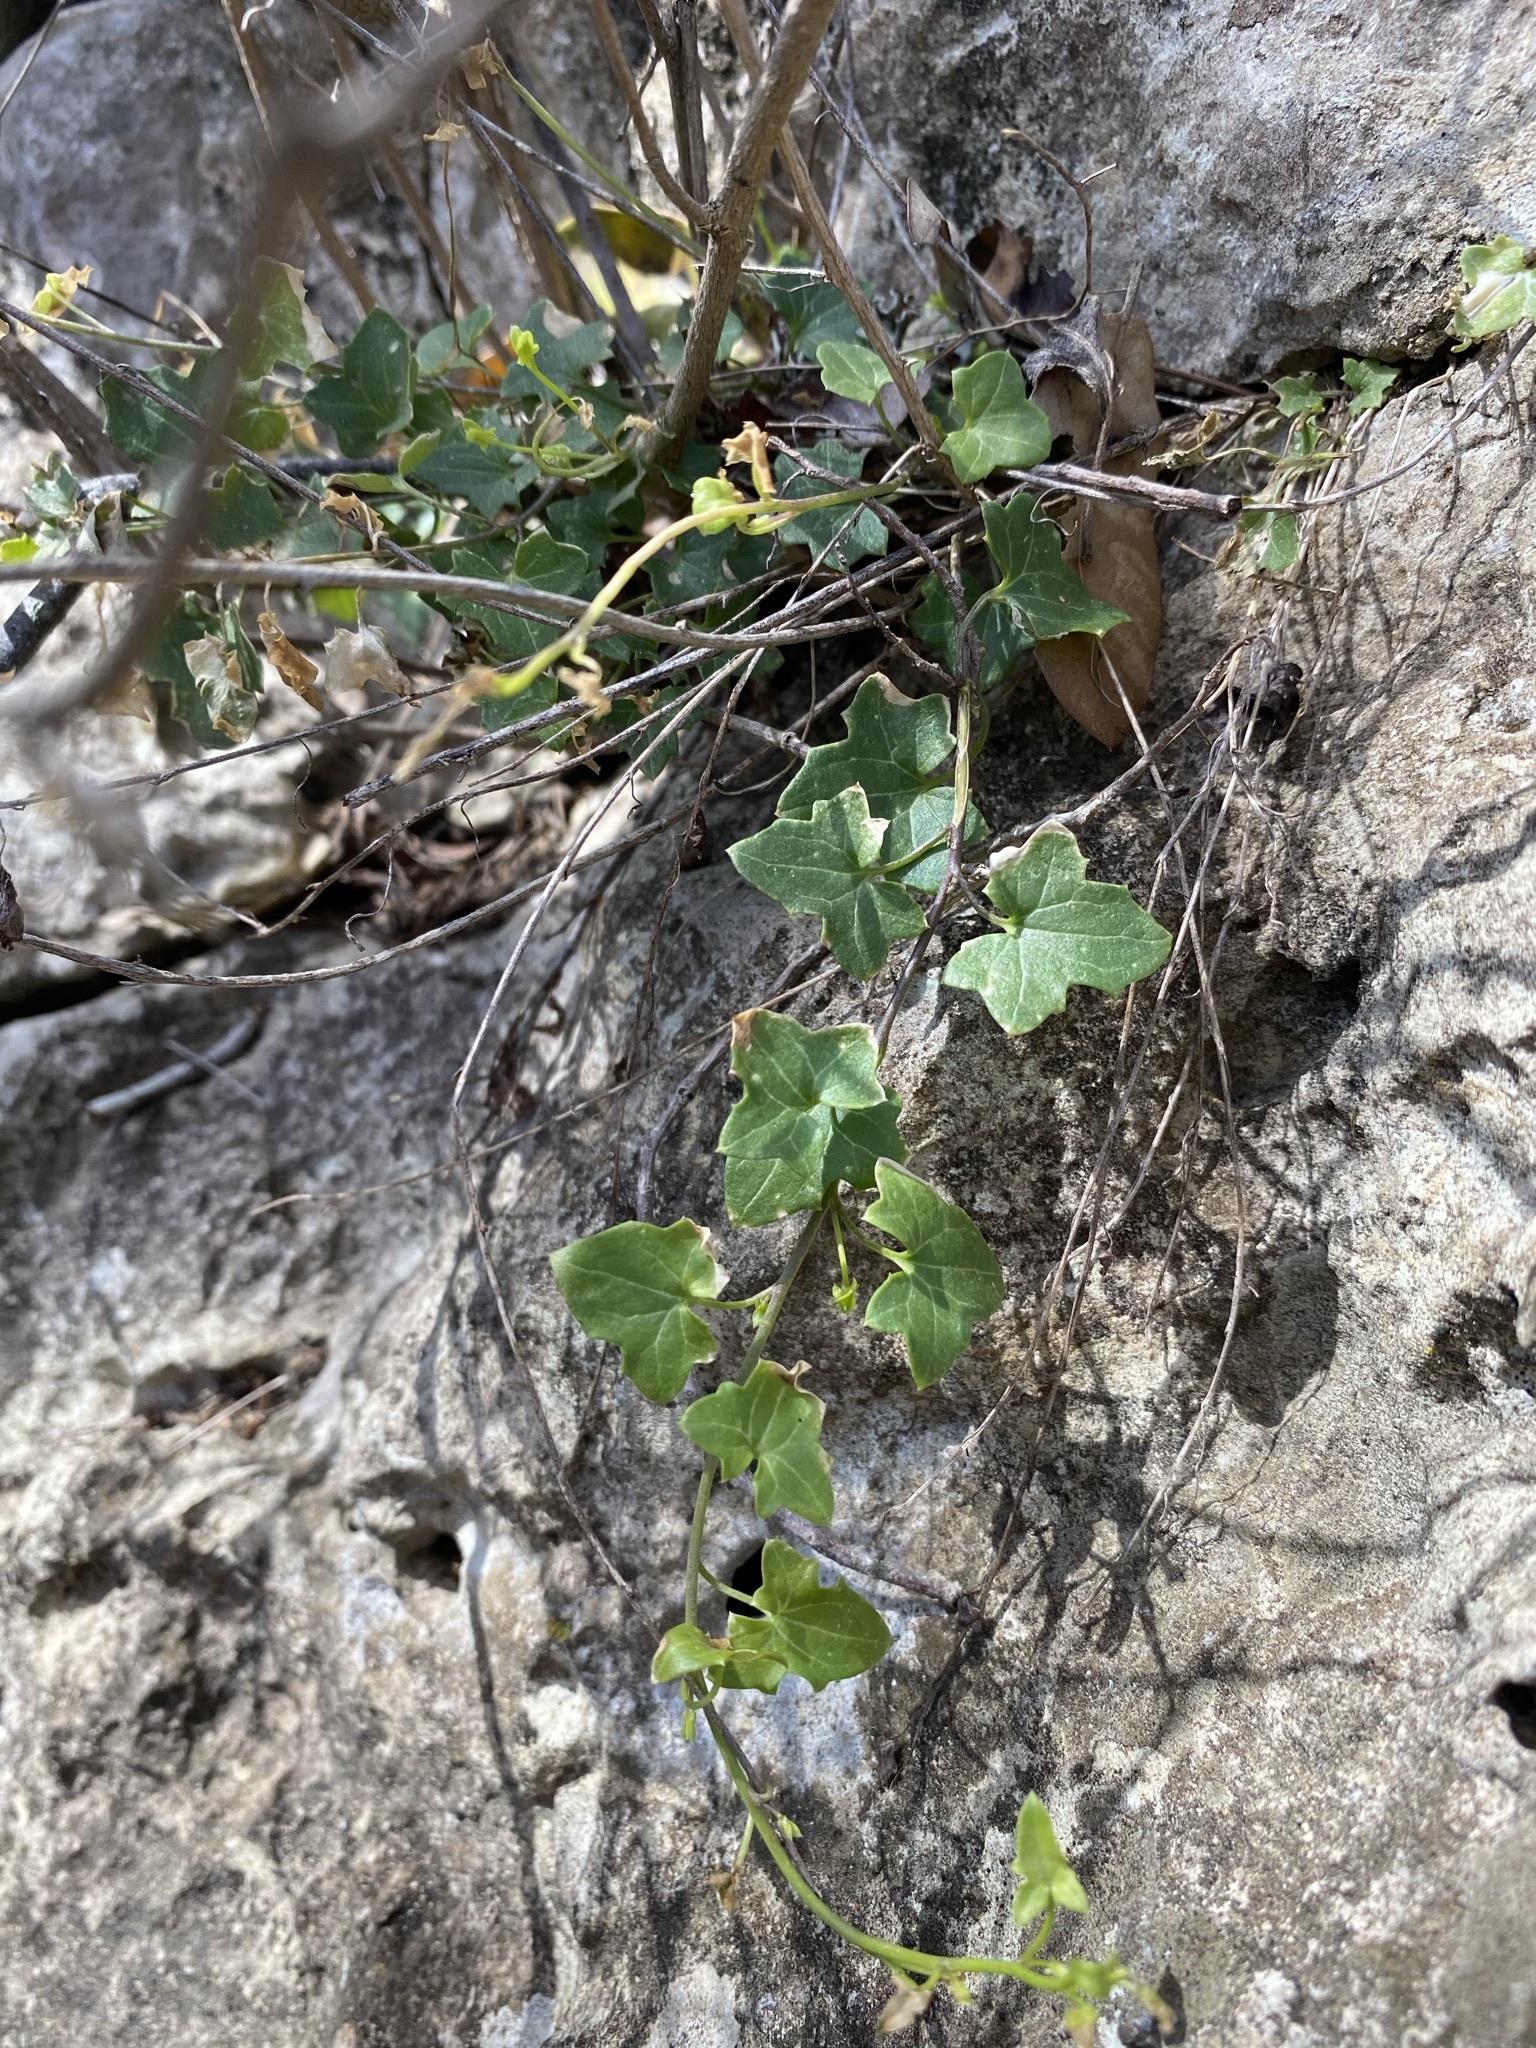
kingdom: Plantae
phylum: Tracheophyta
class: Magnoliopsida
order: Lamiales
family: Plantaginaceae
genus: Maurandella
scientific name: Maurandella antirrhiniflora
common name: Violet twining-snapdragon
